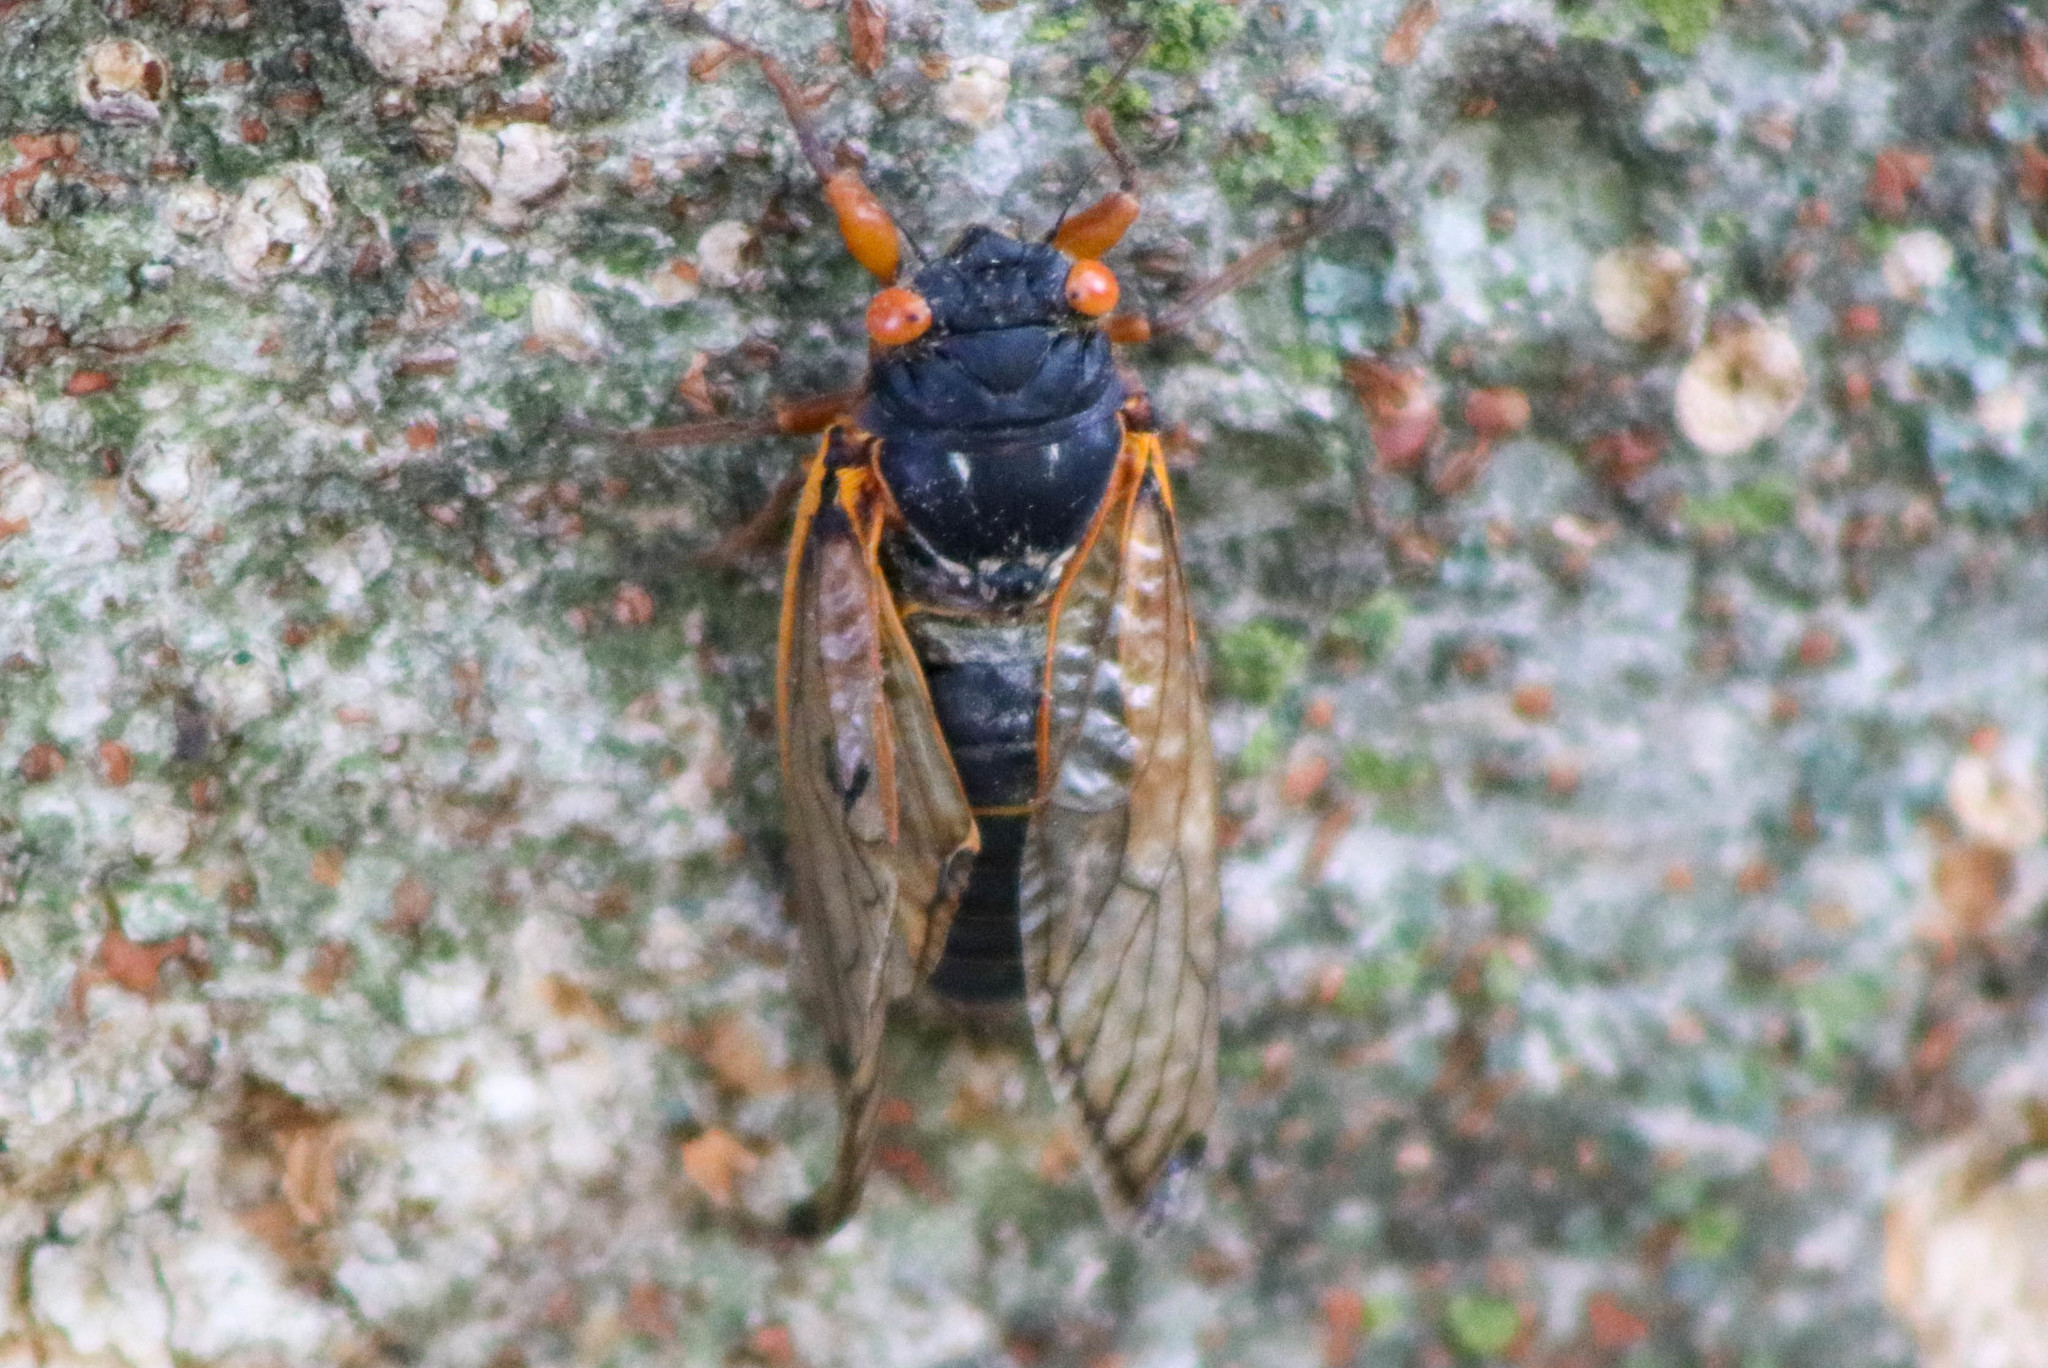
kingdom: Animalia
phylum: Arthropoda
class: Insecta
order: Hemiptera
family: Cicadidae
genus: Magicicada
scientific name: Magicicada
